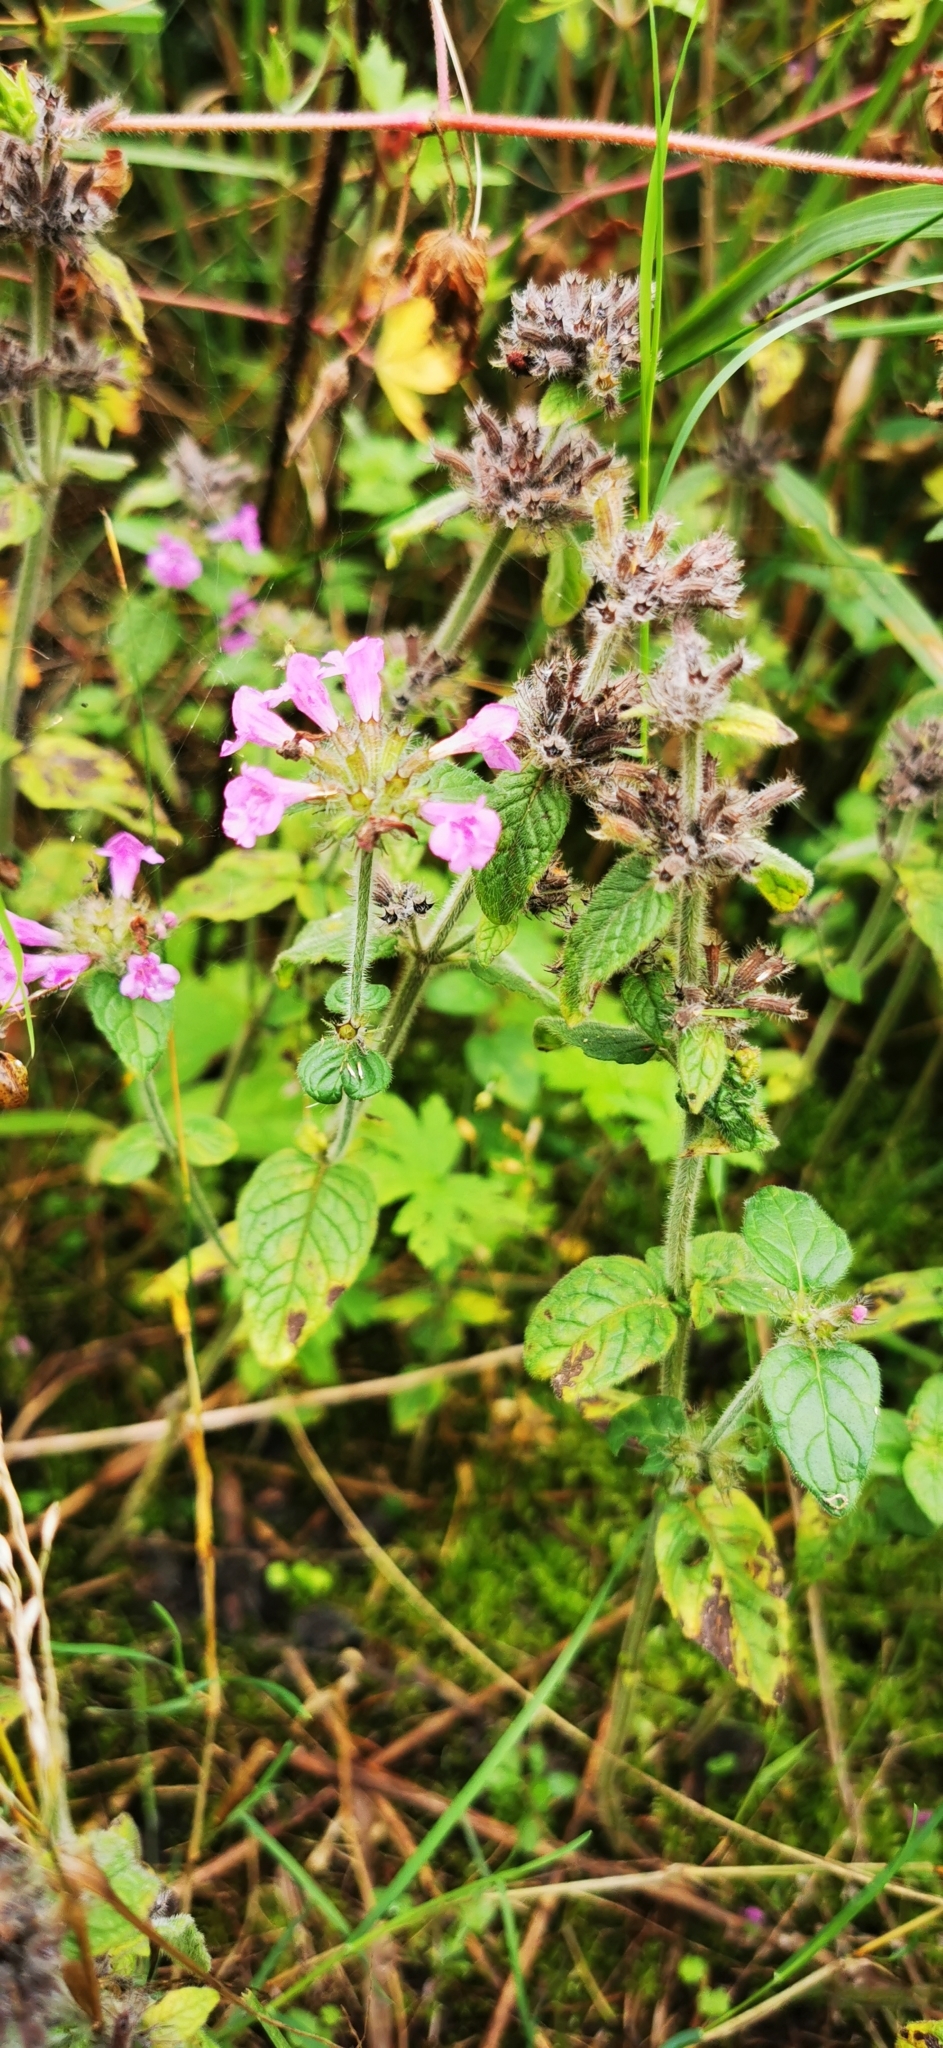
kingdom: Plantae
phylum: Tracheophyta
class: Magnoliopsida
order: Lamiales
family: Lamiaceae
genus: Clinopodium
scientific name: Clinopodium vulgare
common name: Wild basil
